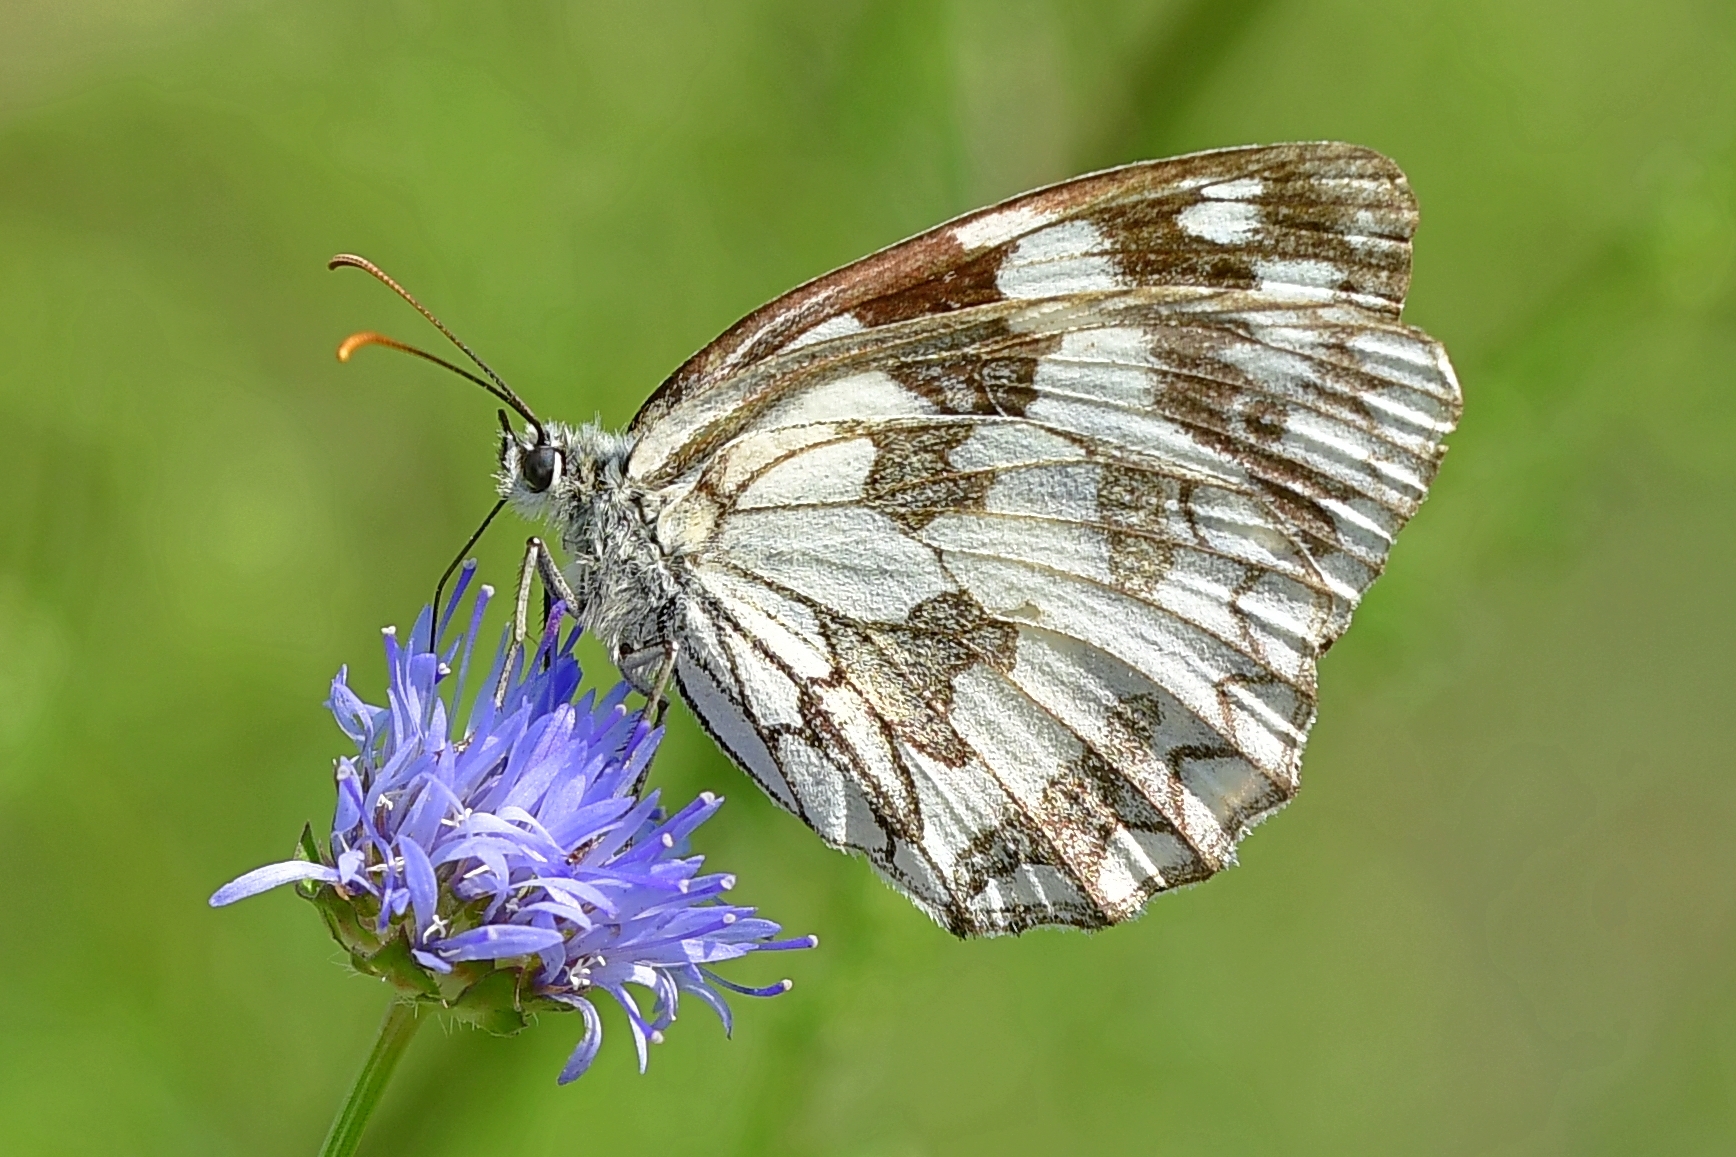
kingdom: Animalia
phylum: Arthropoda
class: Insecta
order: Lepidoptera
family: Nymphalidae
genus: Melanargia
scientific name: Melanargia galathea
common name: Marbled white
